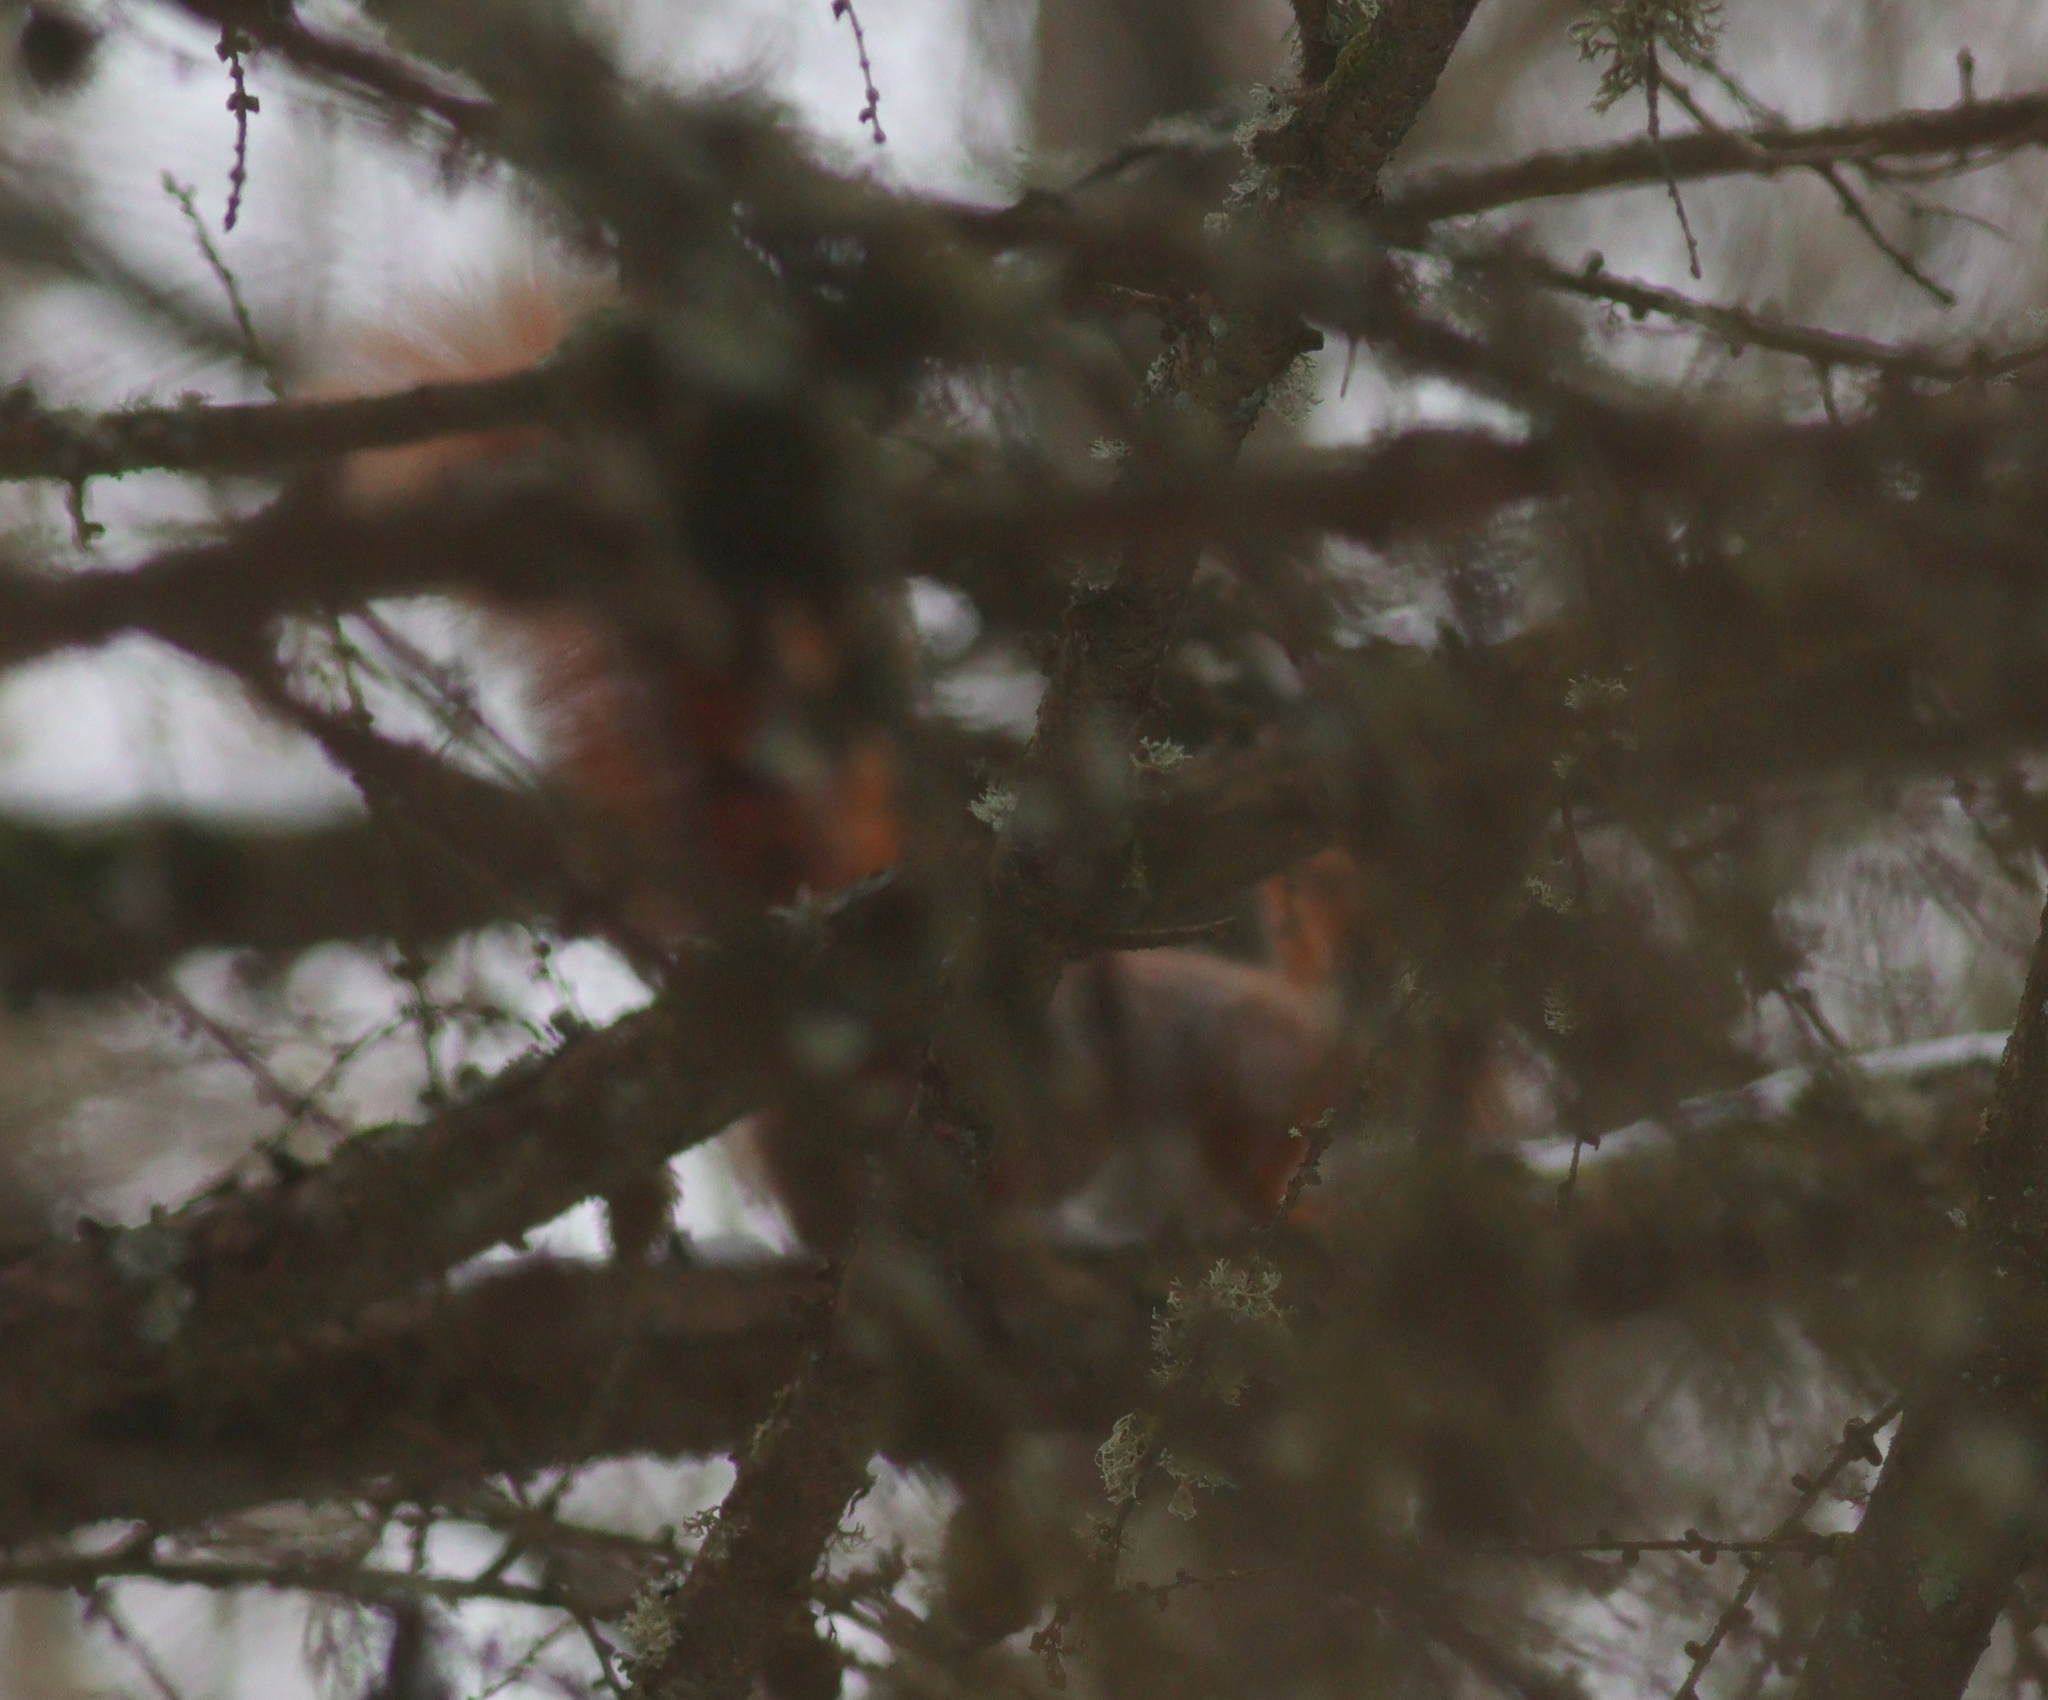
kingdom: Animalia
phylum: Chordata
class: Mammalia
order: Rodentia
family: Sciuridae
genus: Sciurus
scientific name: Sciurus vulgaris
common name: Eurasian red squirrel
